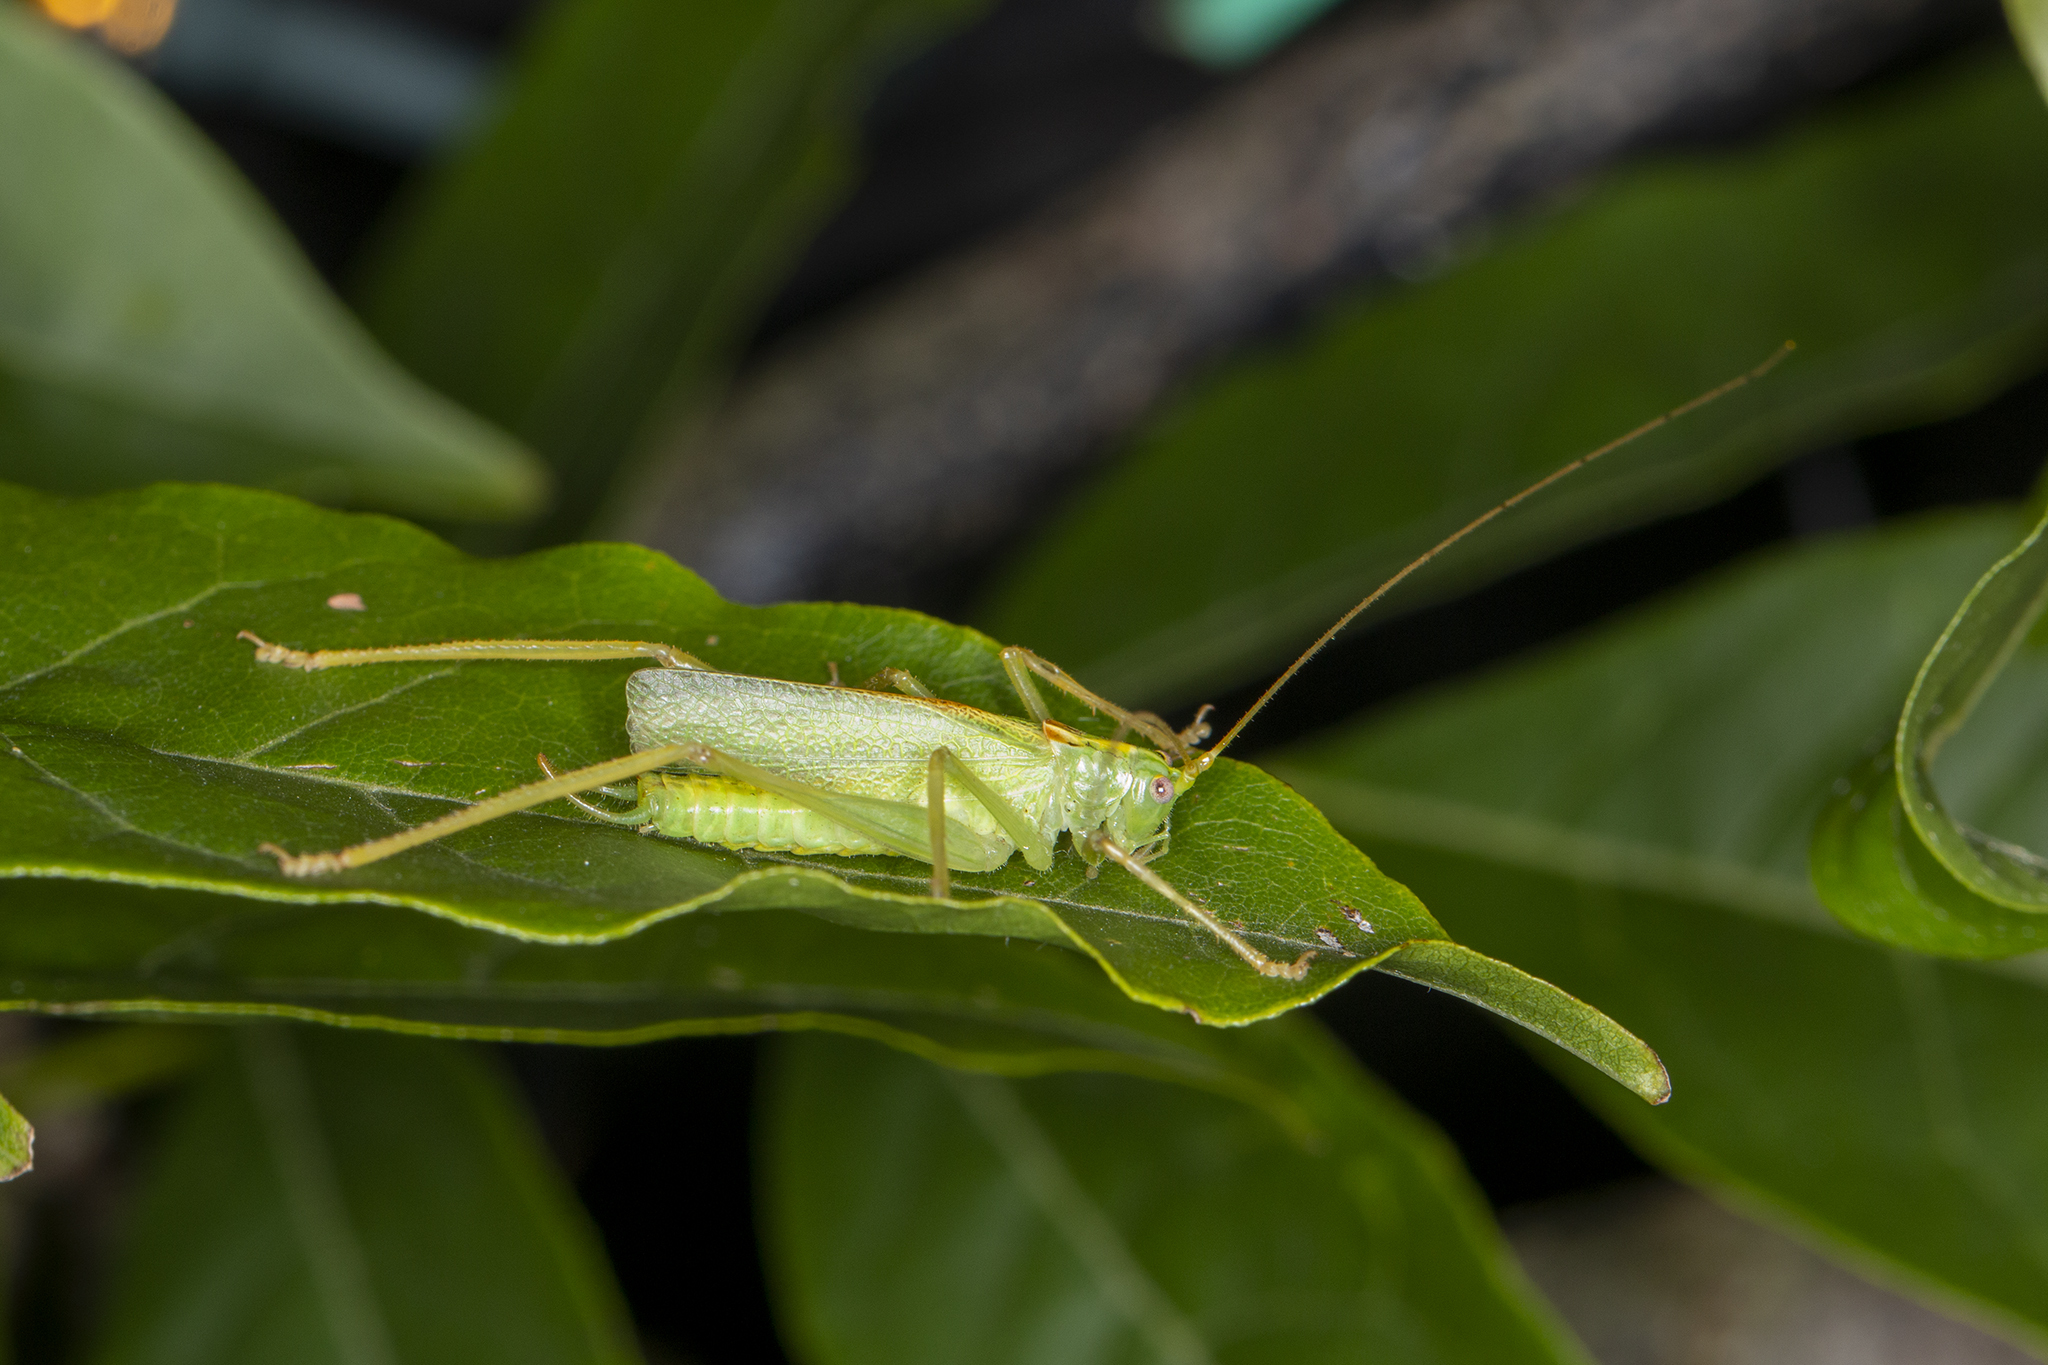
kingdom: Animalia
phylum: Arthropoda
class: Insecta
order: Orthoptera
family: Tettigoniidae
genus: Meconema
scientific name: Meconema thalassinum
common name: Oak bush-cricket
